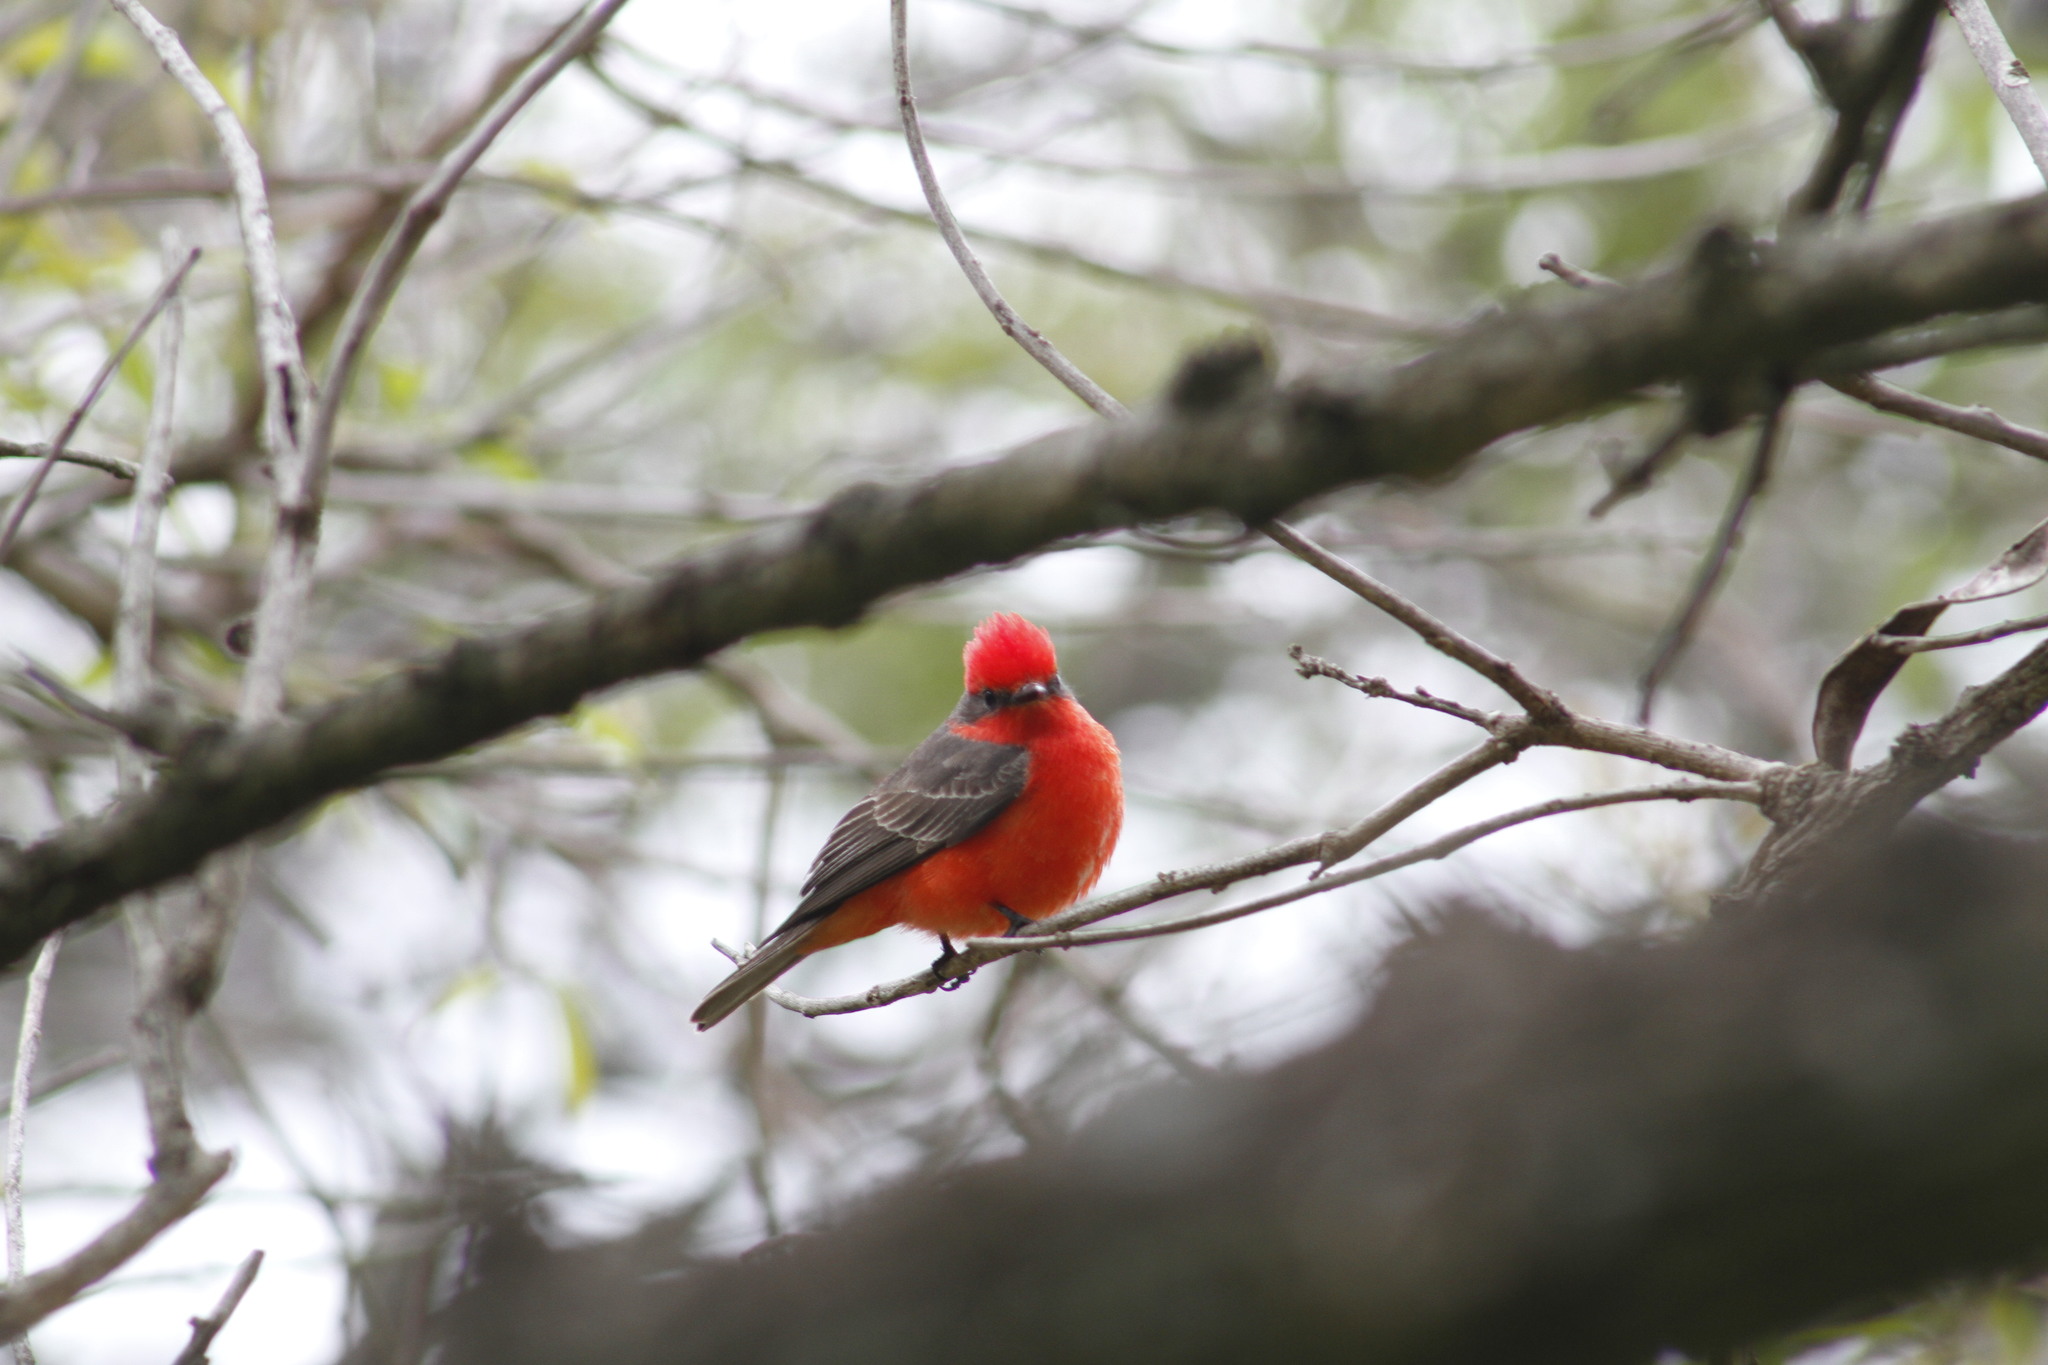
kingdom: Animalia
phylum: Chordata
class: Aves
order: Passeriformes
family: Tyrannidae
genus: Pyrocephalus
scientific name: Pyrocephalus rubinus
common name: Vermilion flycatcher
